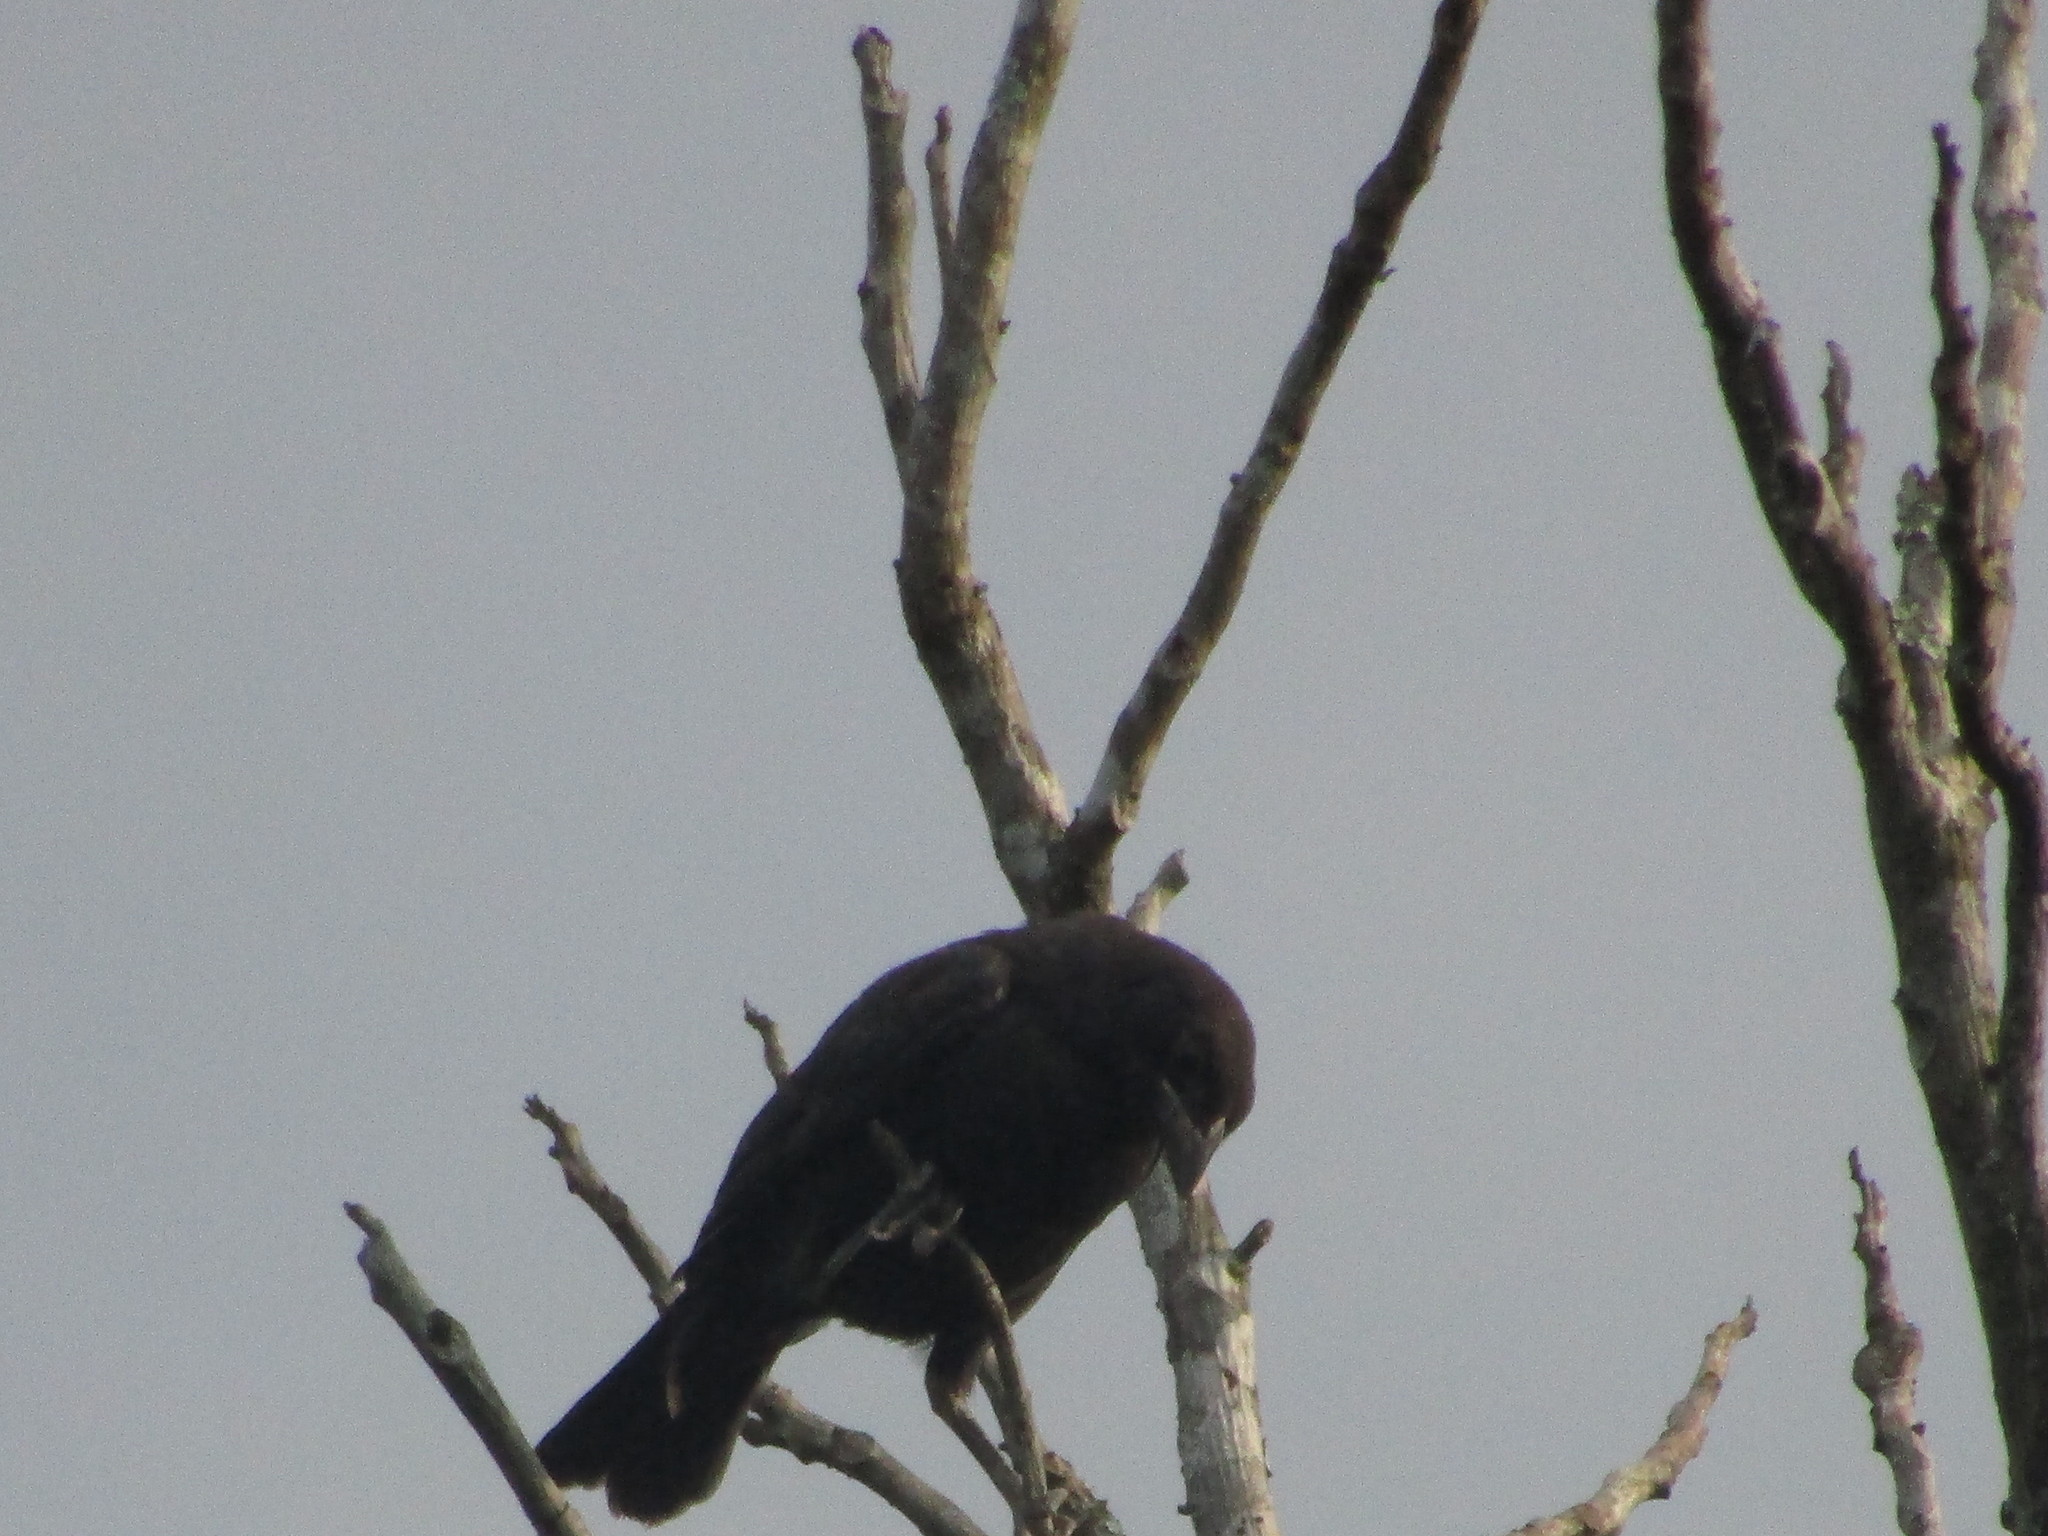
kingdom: Animalia
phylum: Chordata
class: Aves
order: Passeriformes
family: Icteridae
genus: Dives
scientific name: Dives dives
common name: Melodious blackbird
